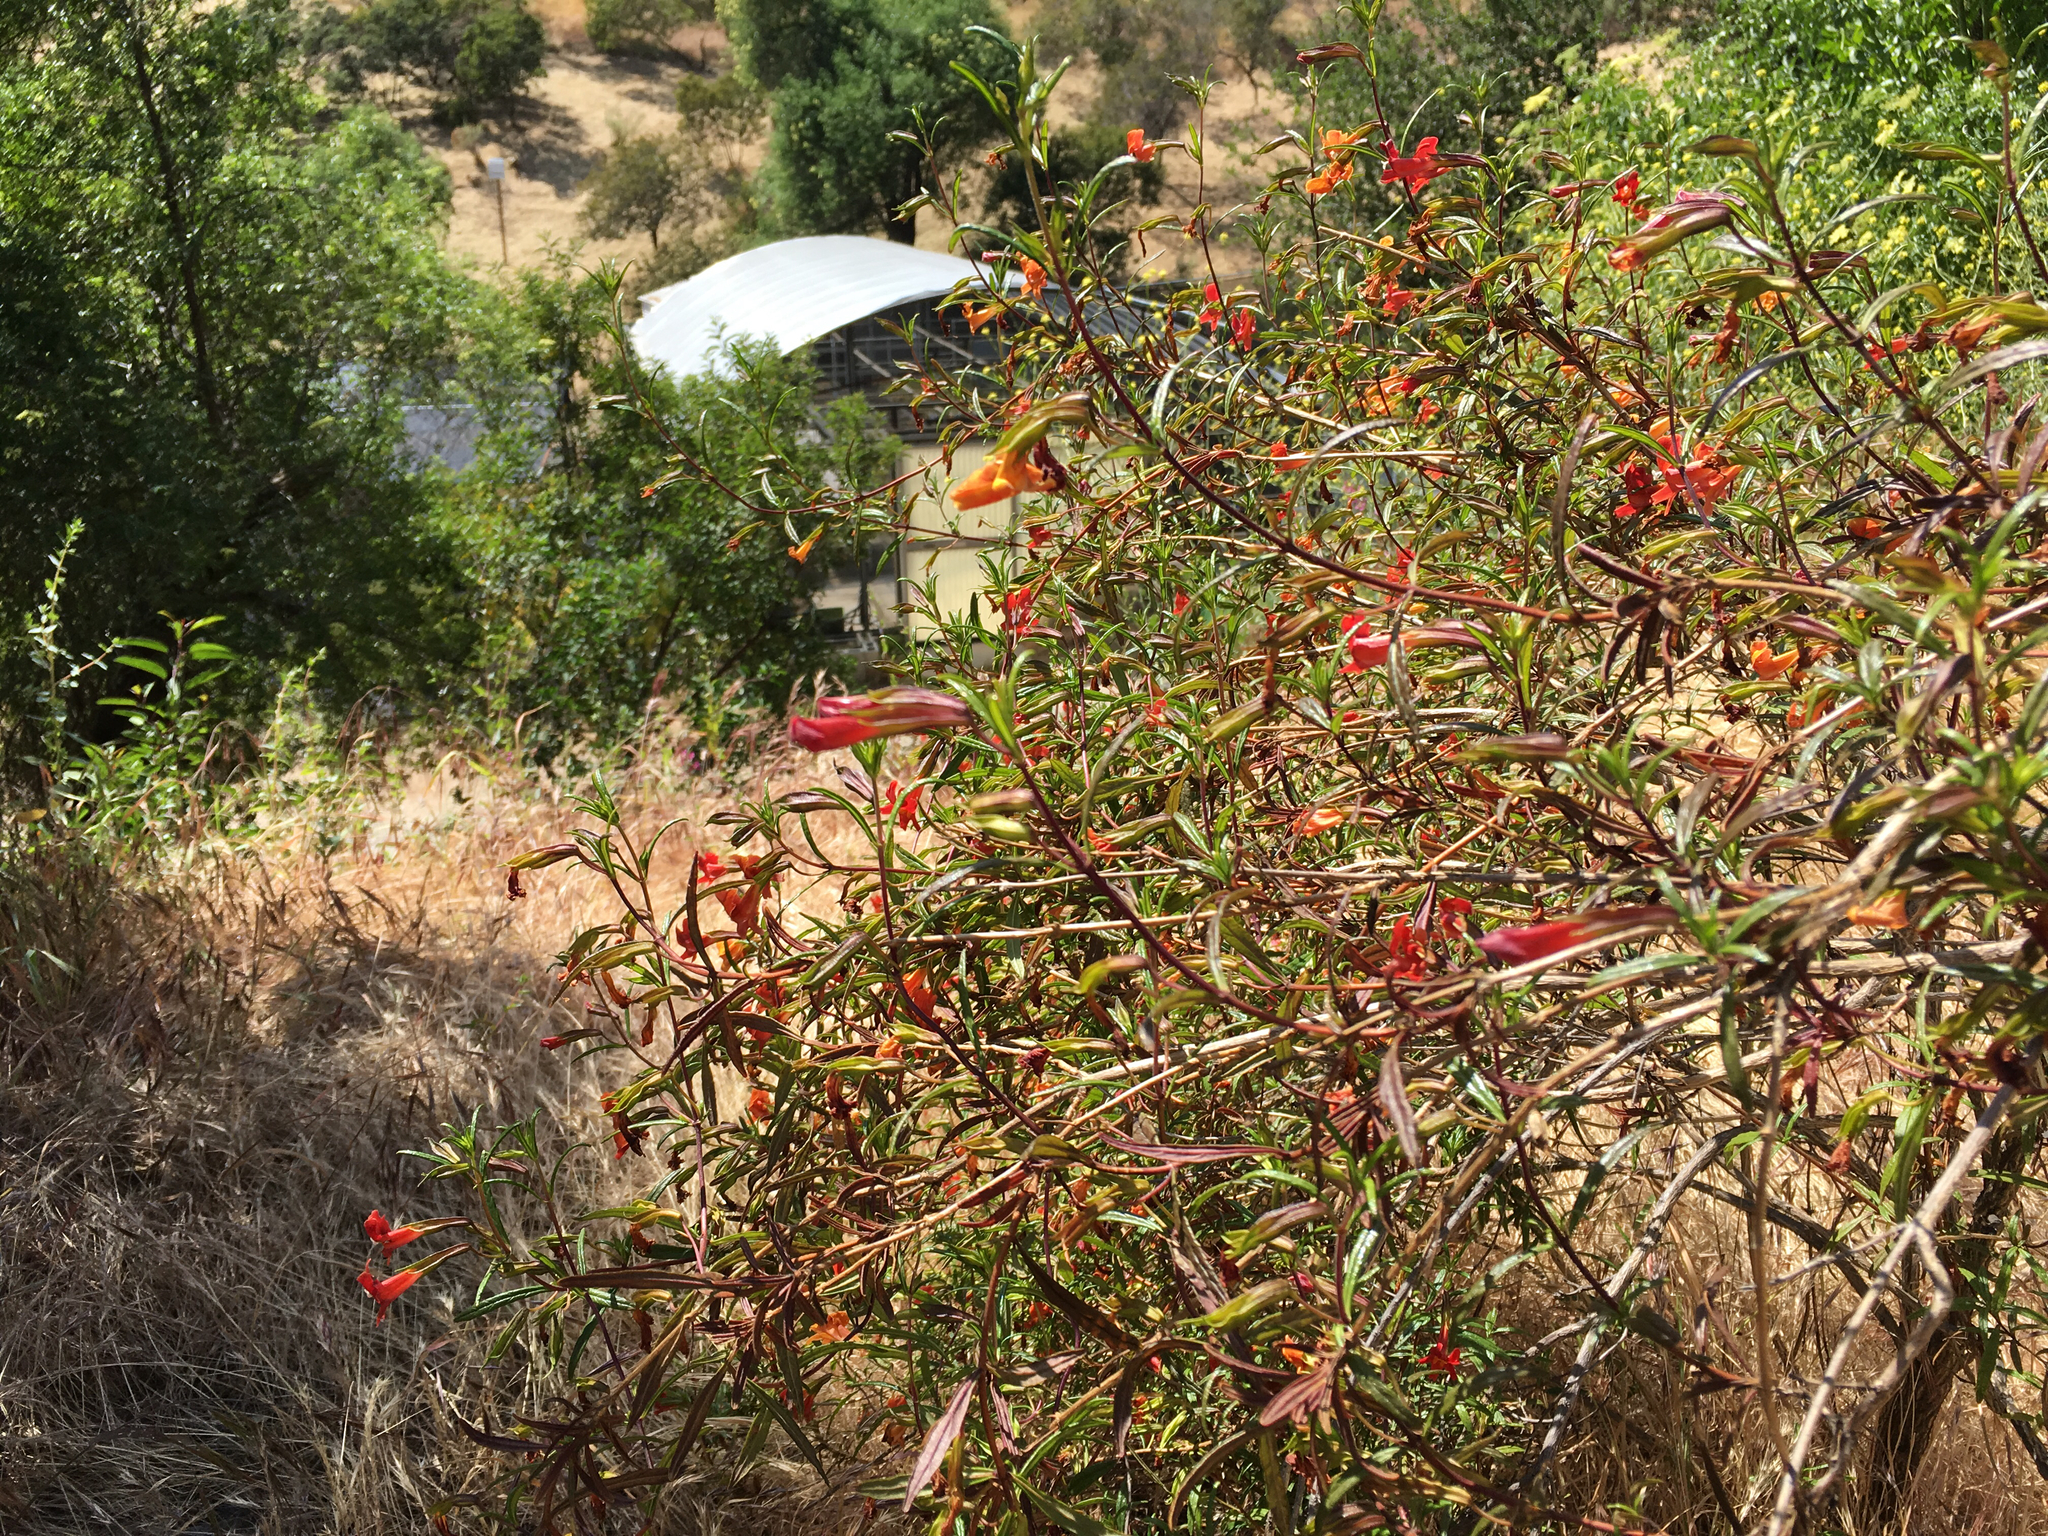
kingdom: Plantae
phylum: Tracheophyta
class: Magnoliopsida
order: Lamiales
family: Phrymaceae
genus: Diplacus
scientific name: Diplacus puniceus
